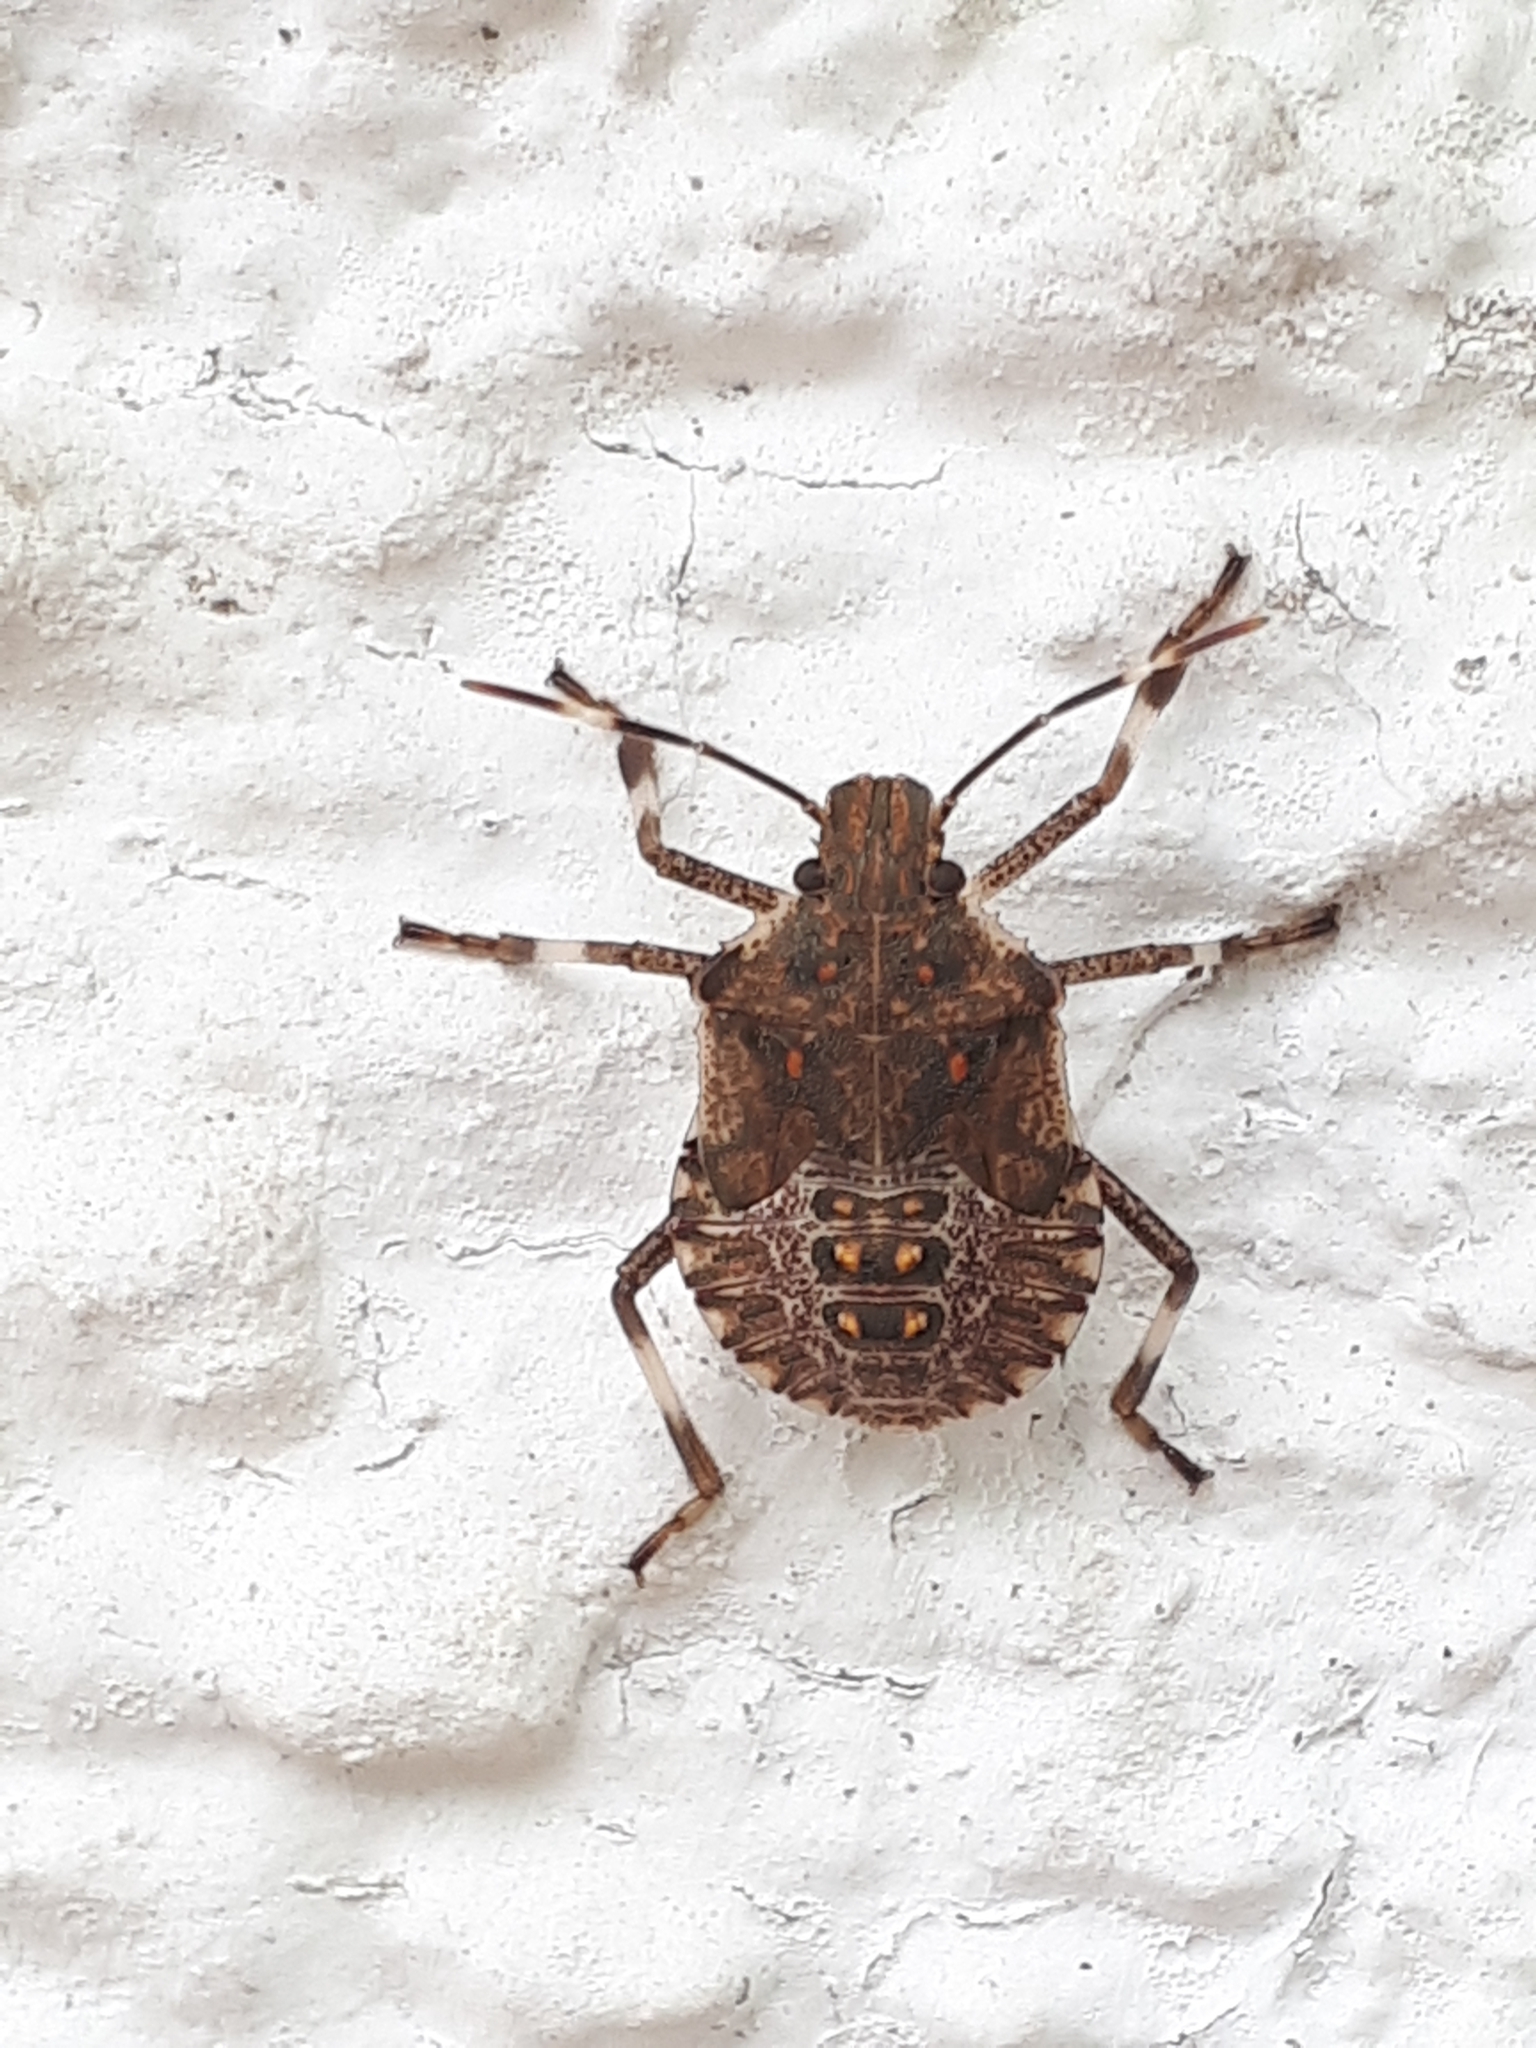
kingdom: Animalia
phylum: Arthropoda
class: Insecta
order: Hemiptera
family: Pentatomidae
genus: Halyomorpha
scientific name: Halyomorpha halys
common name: Brown marmorated stink bug
